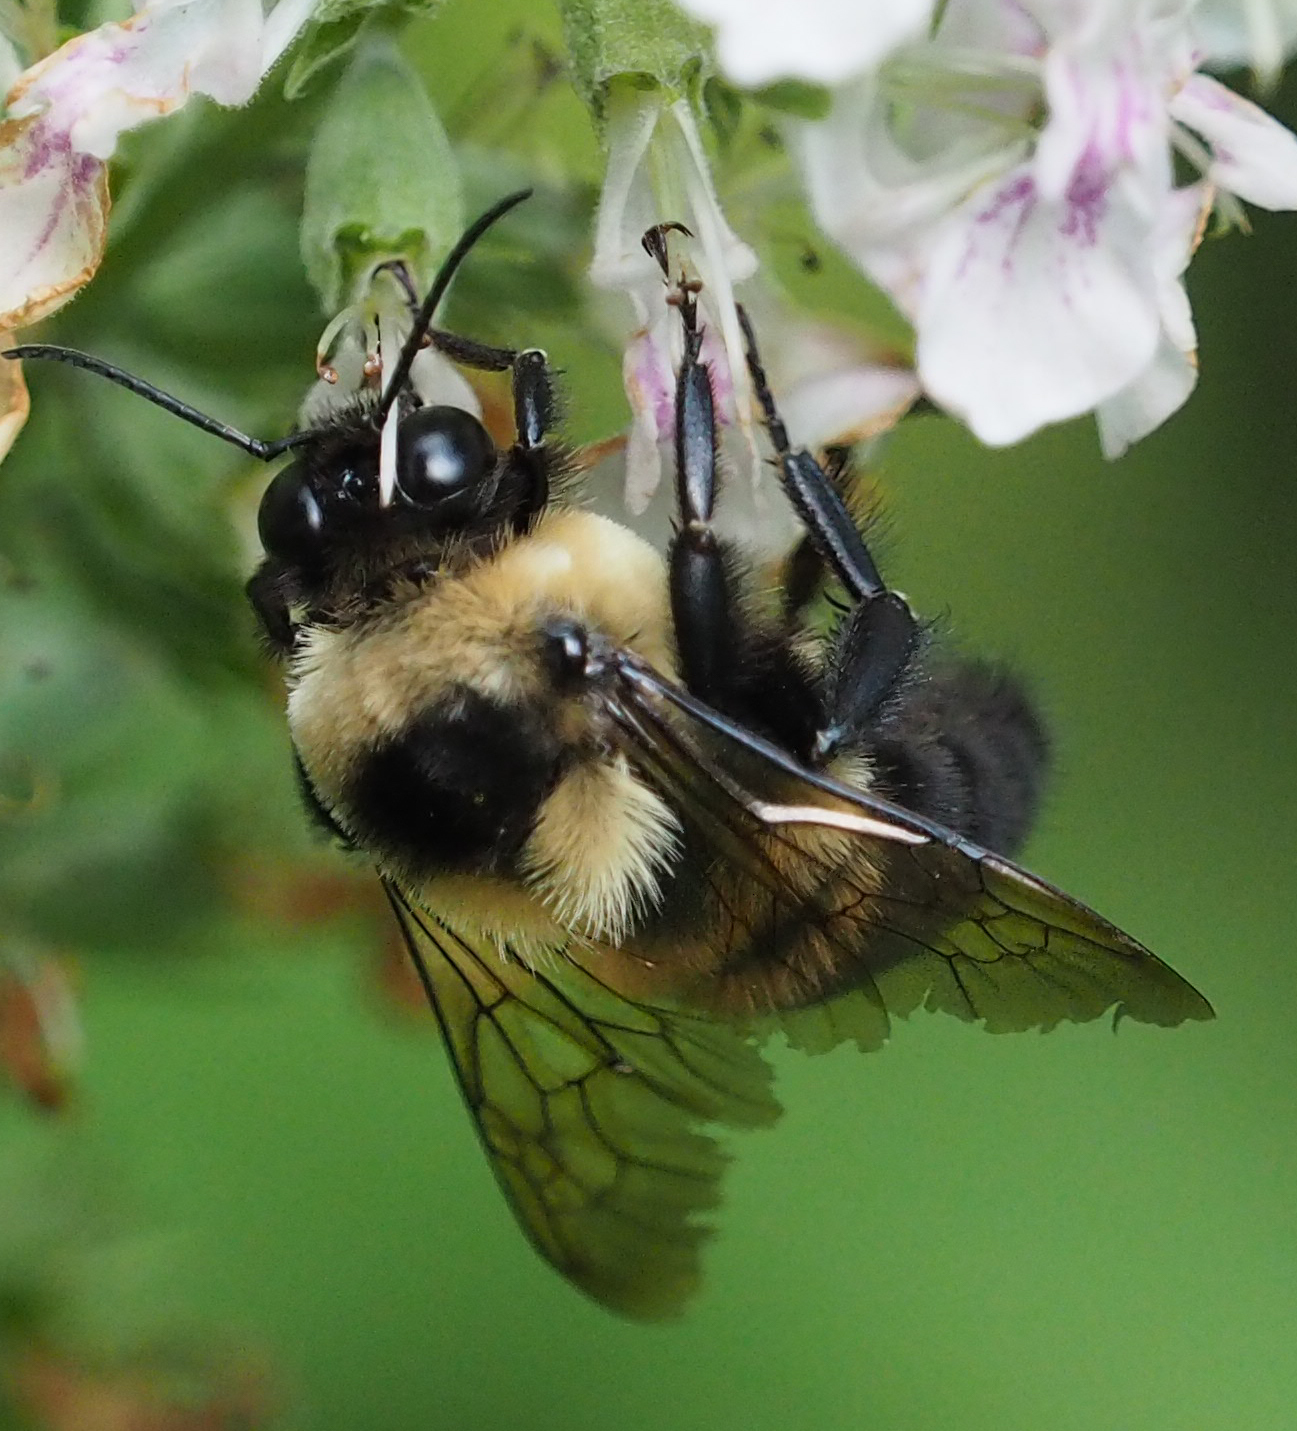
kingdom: Animalia
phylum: Arthropoda
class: Insecta
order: Hymenoptera
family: Apidae
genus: Bombus
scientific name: Bombus griseocollis
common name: Brown-belted bumble bee
